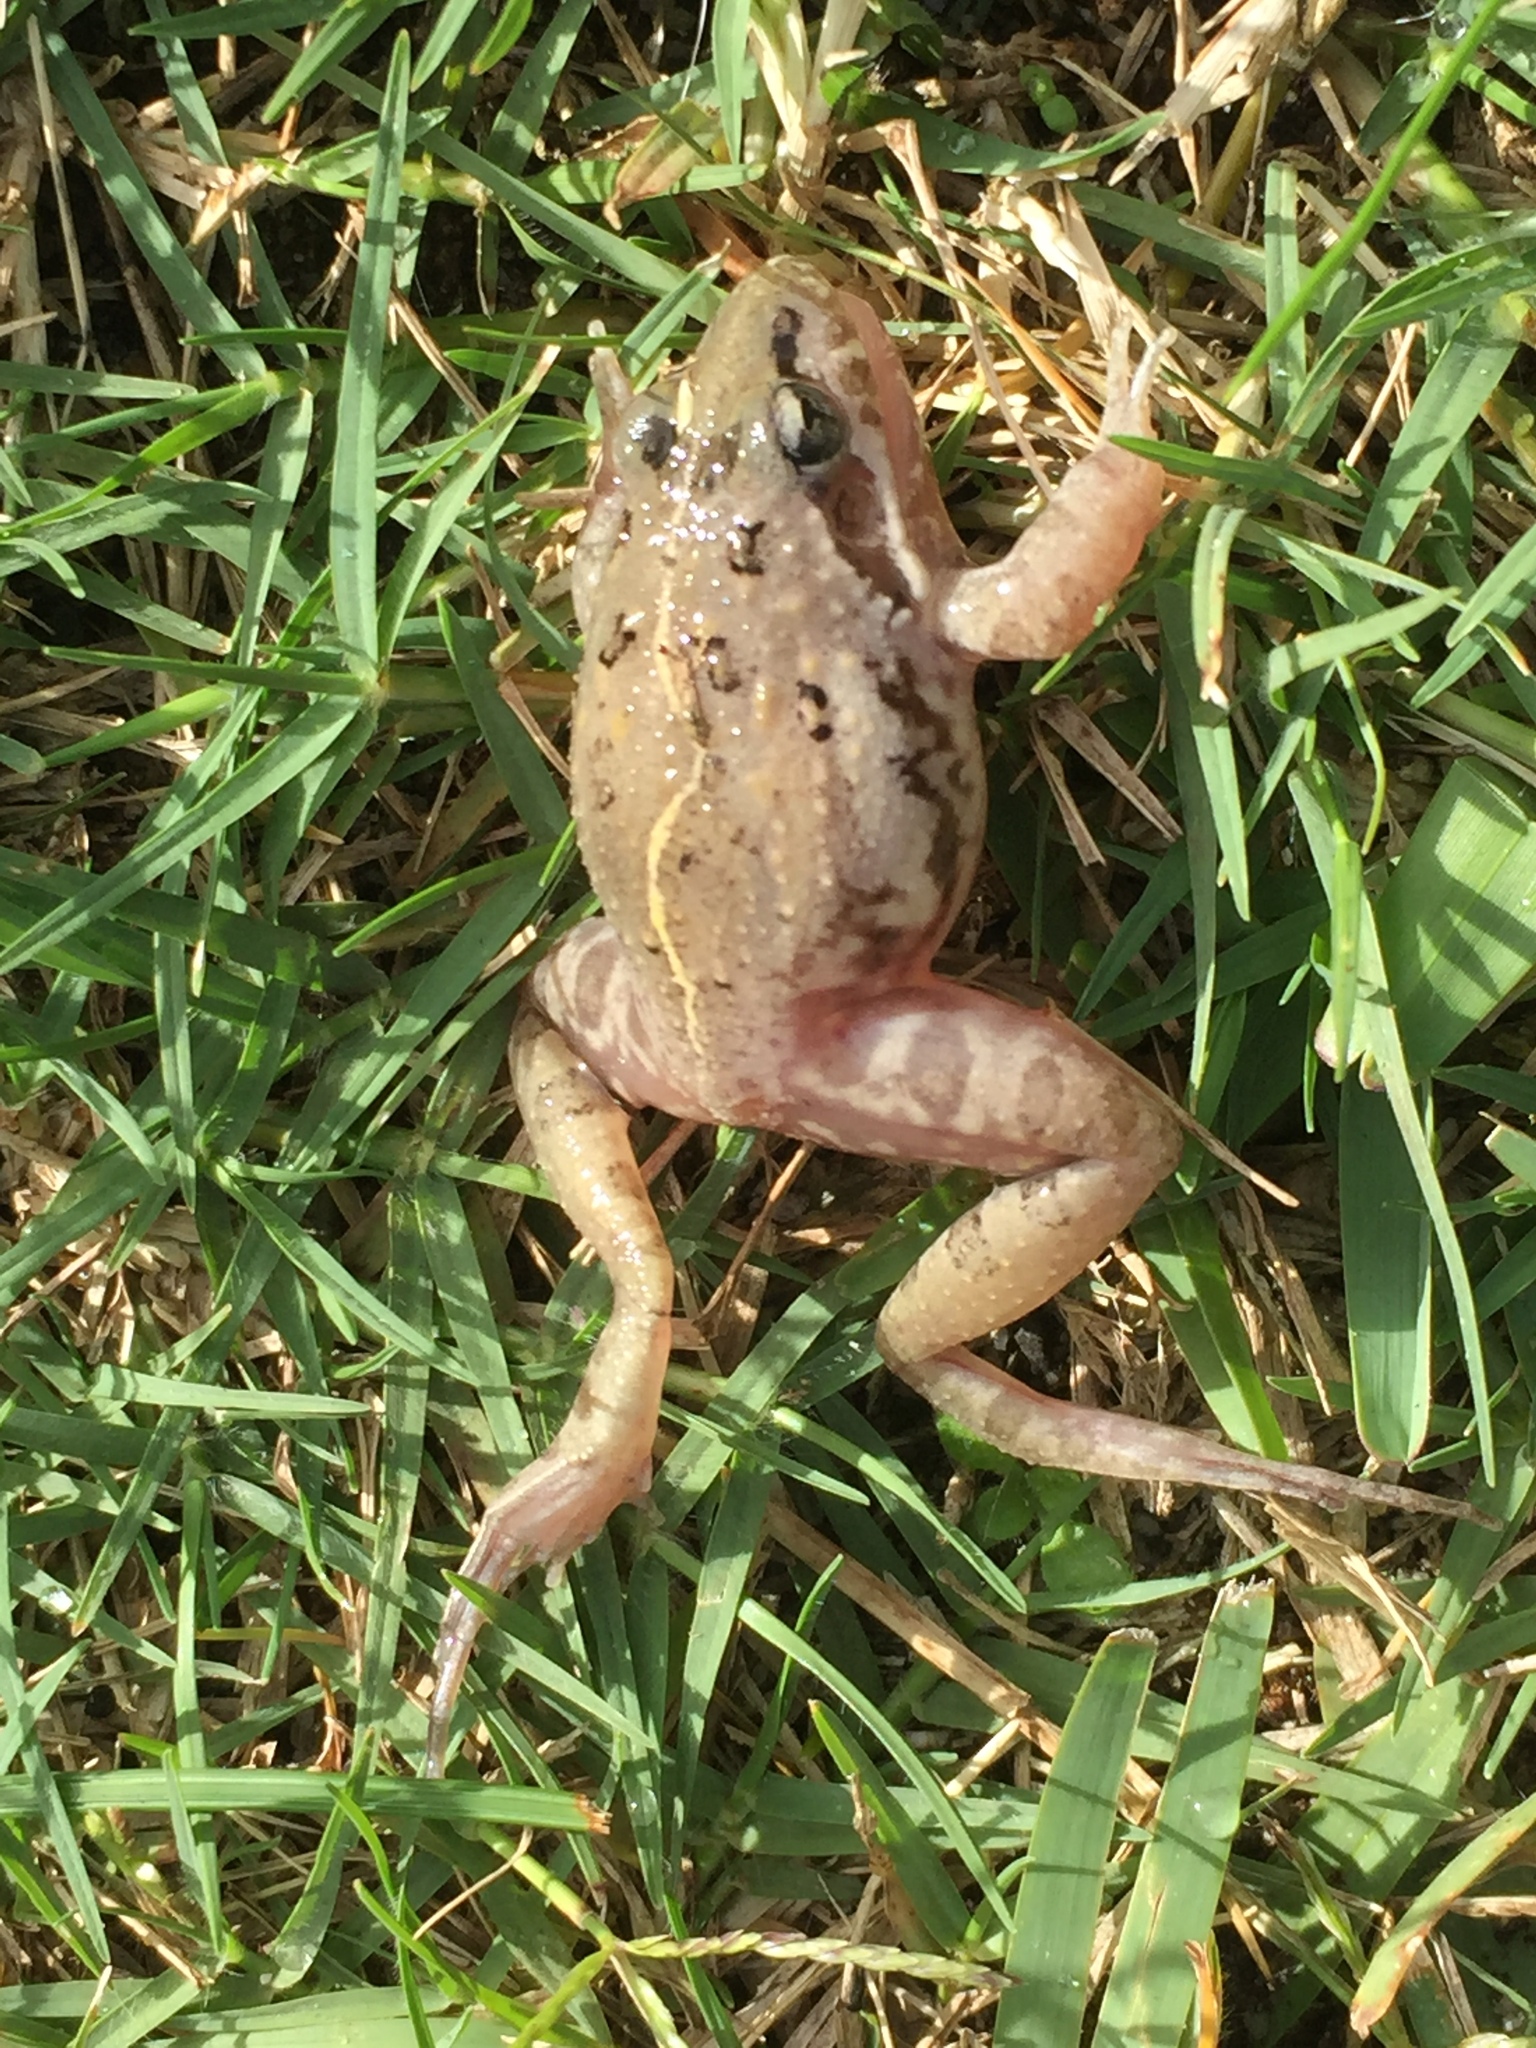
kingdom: Animalia
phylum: Chordata
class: Amphibia
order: Anura
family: Pyxicephalidae
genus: Strongylopus
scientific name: Strongylopus grayii
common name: Gray's stream frog
